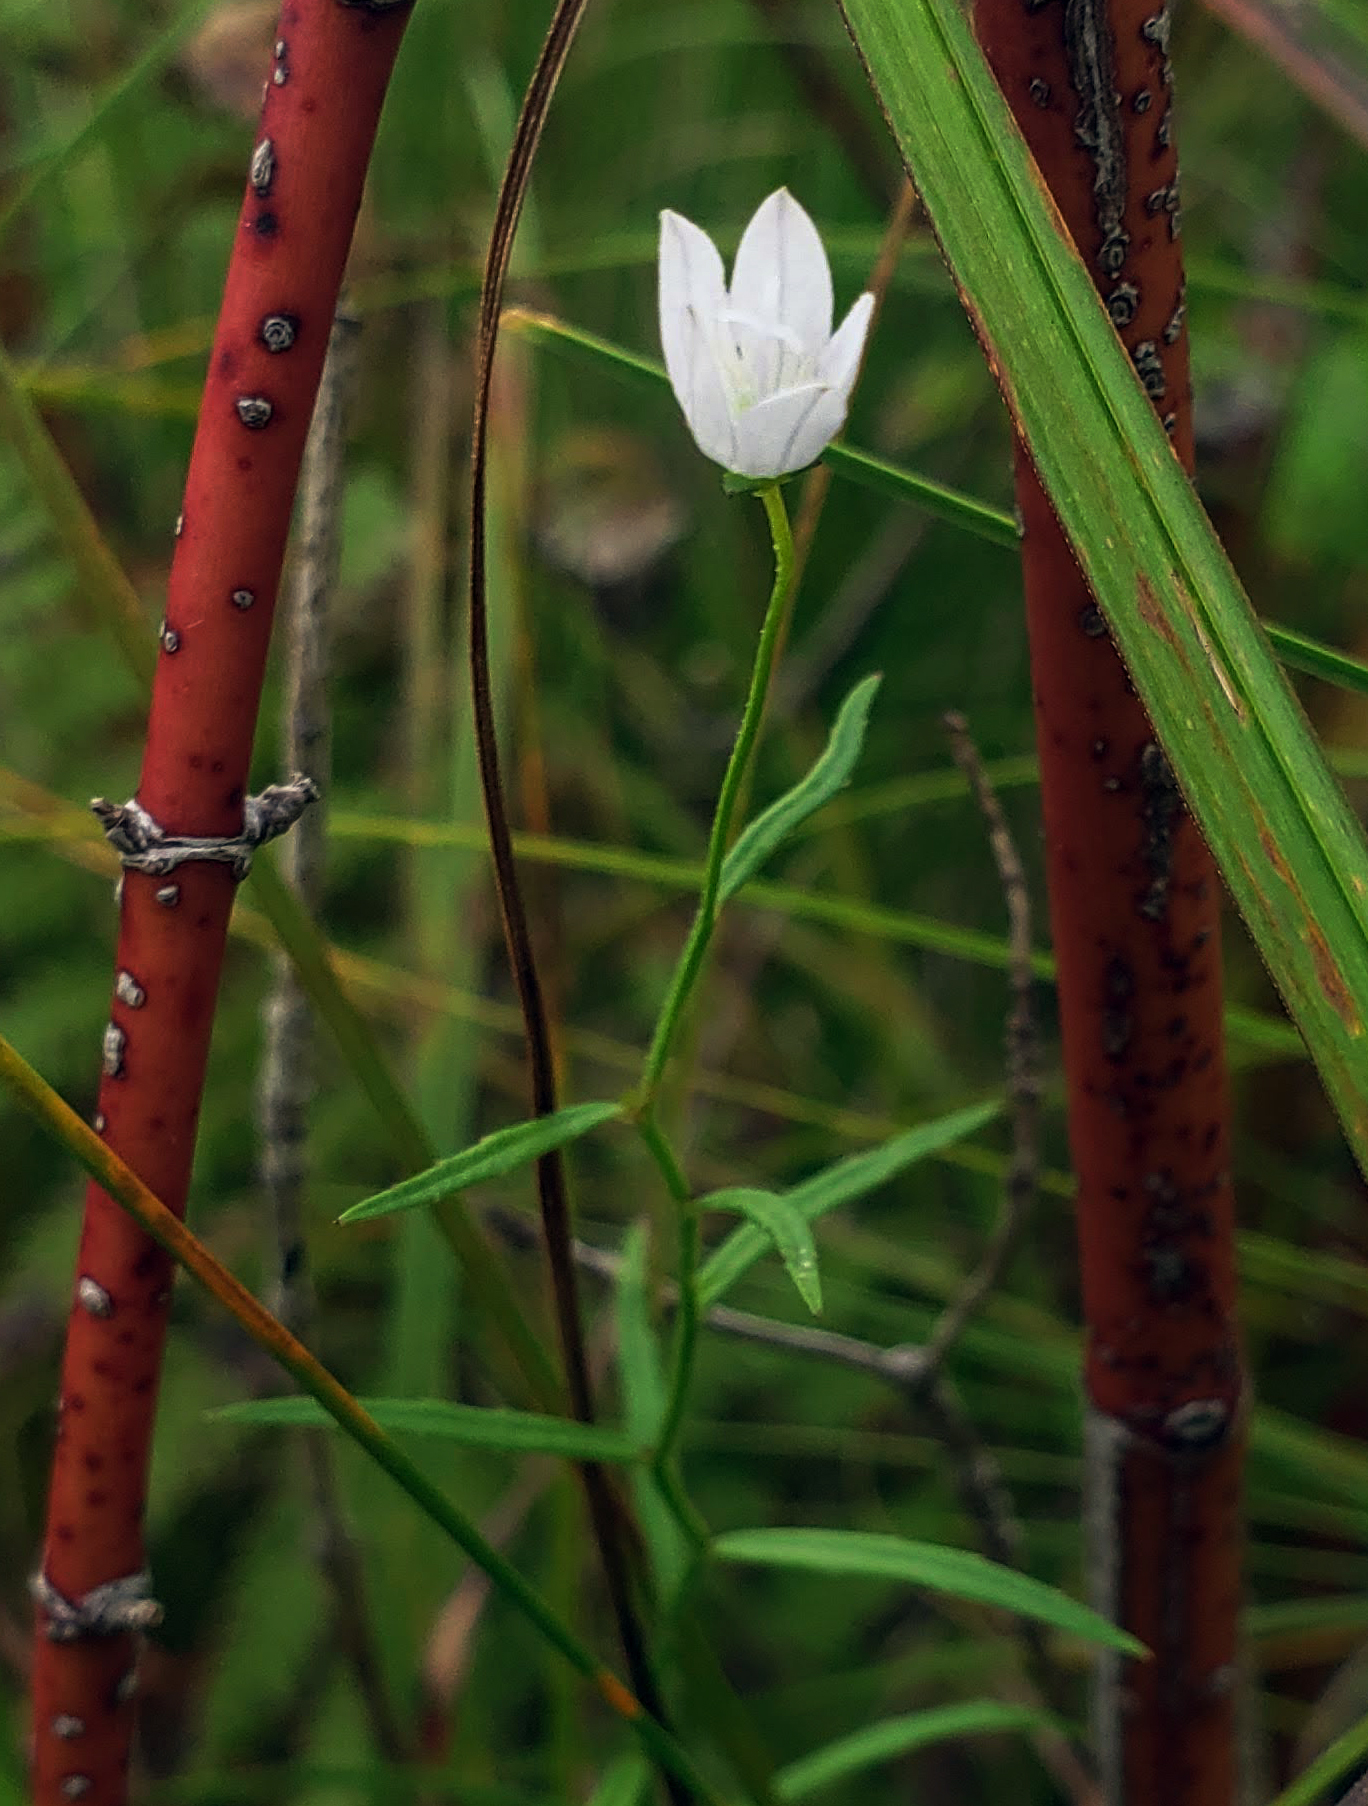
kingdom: Plantae
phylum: Tracheophyta
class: Magnoliopsida
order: Asterales
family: Campanulaceae
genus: Palustricodon
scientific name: Palustricodon aparinoides
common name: Bedstraw bellflower
